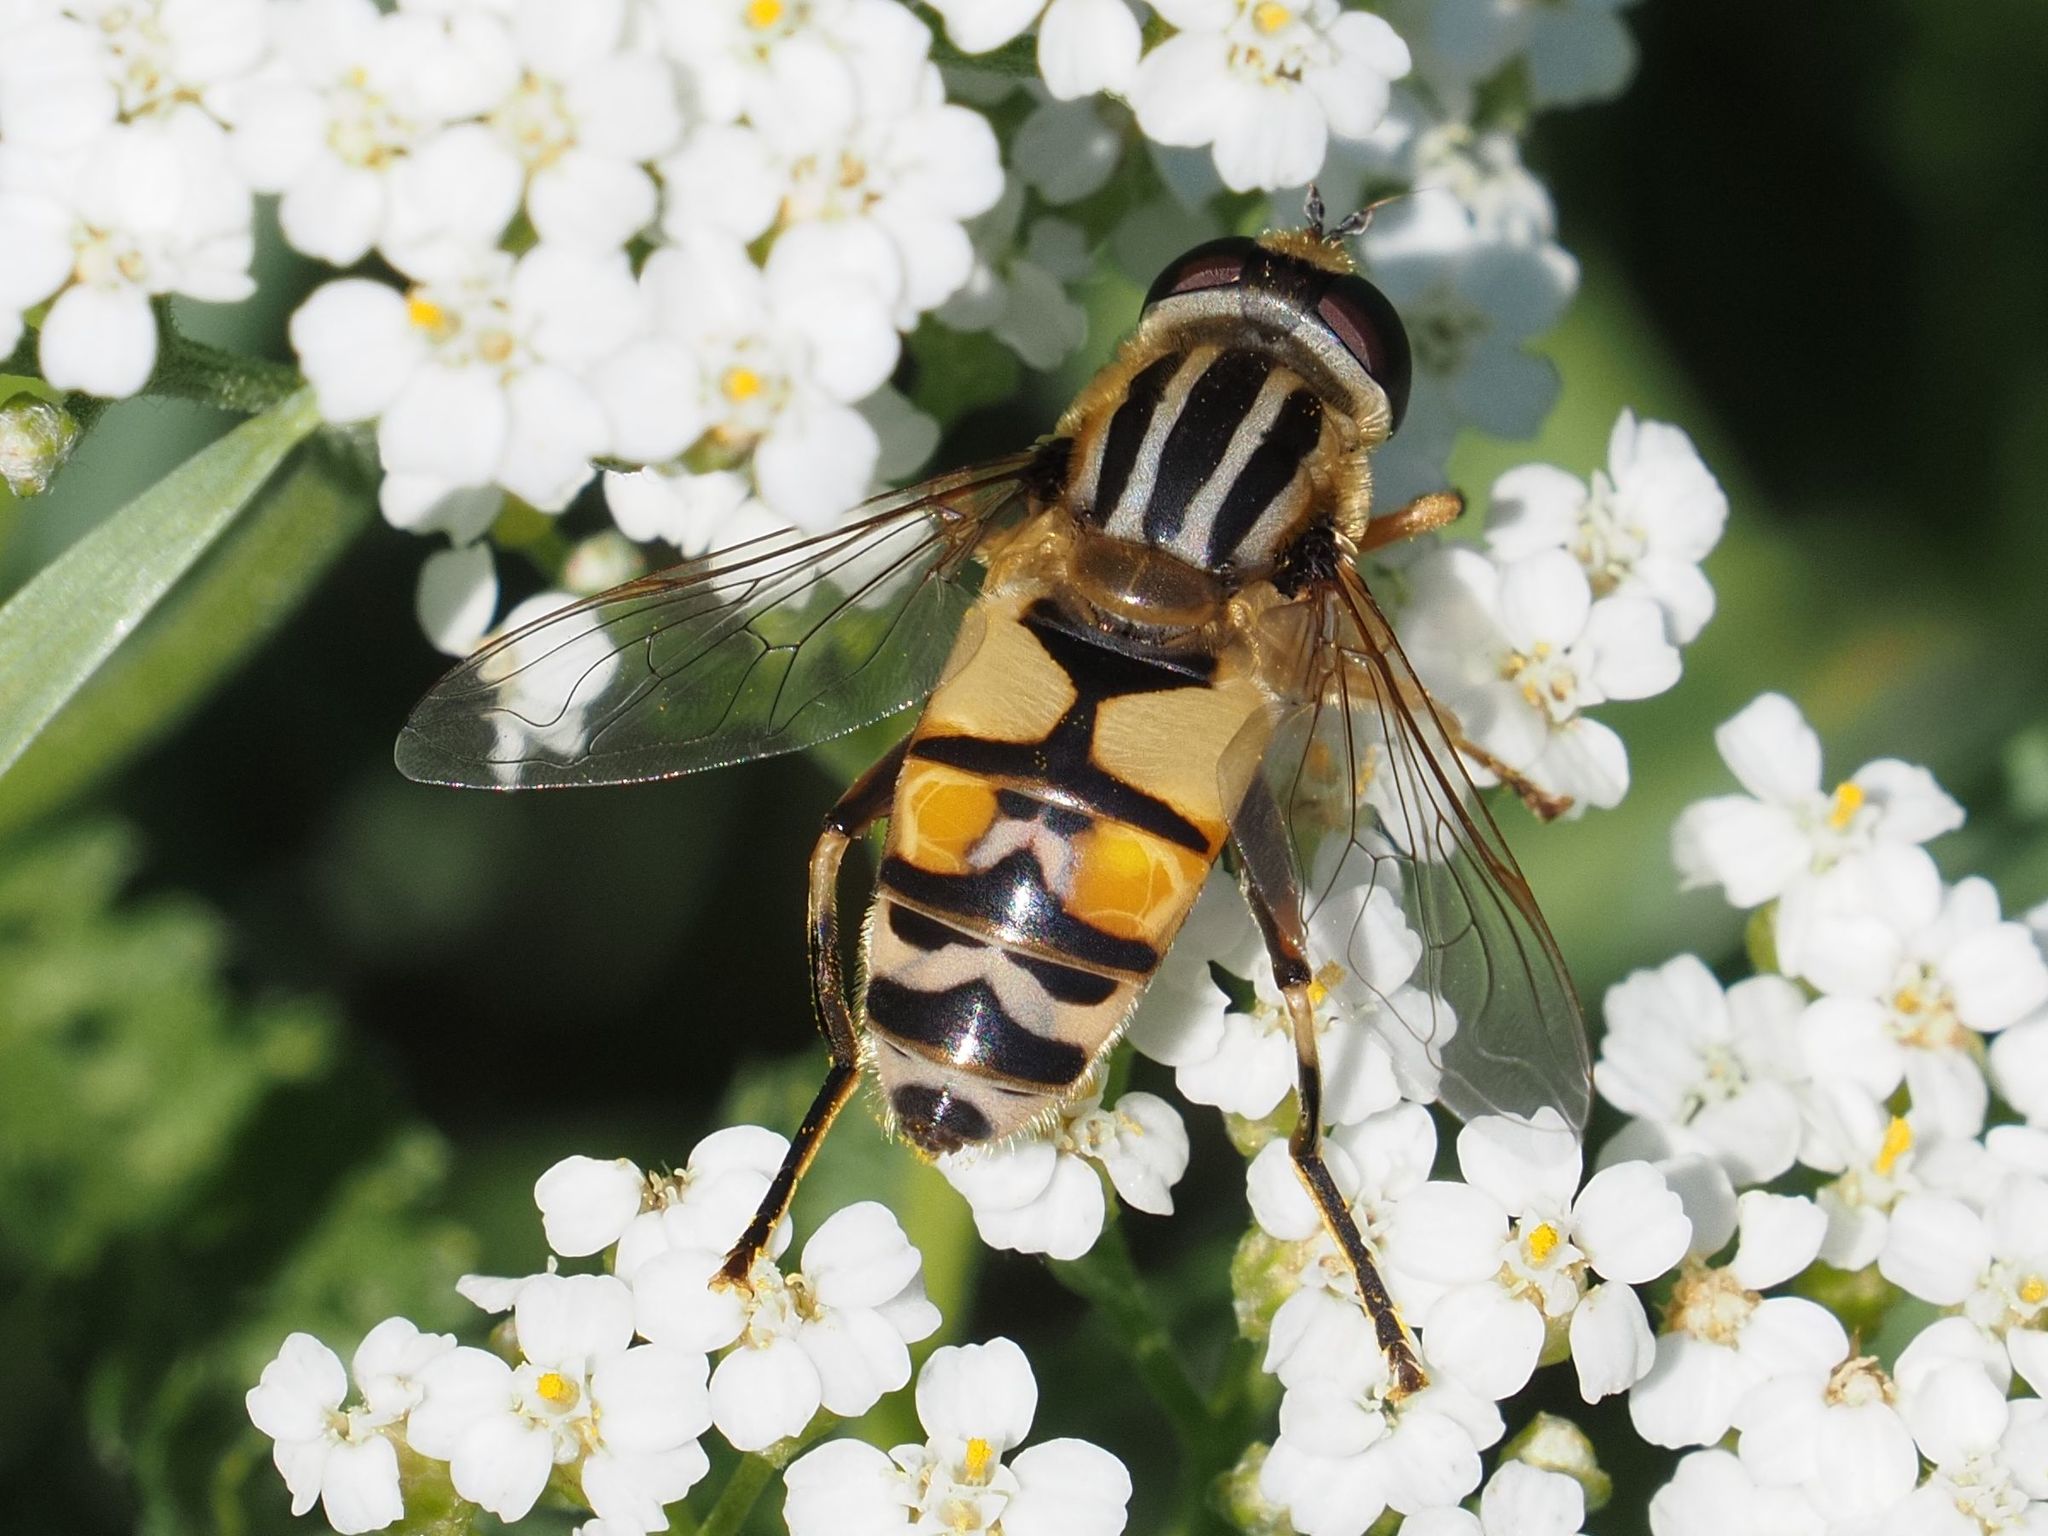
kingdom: Animalia
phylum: Arthropoda
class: Insecta
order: Diptera
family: Syrphidae
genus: Helophilus
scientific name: Helophilus trivittatus
